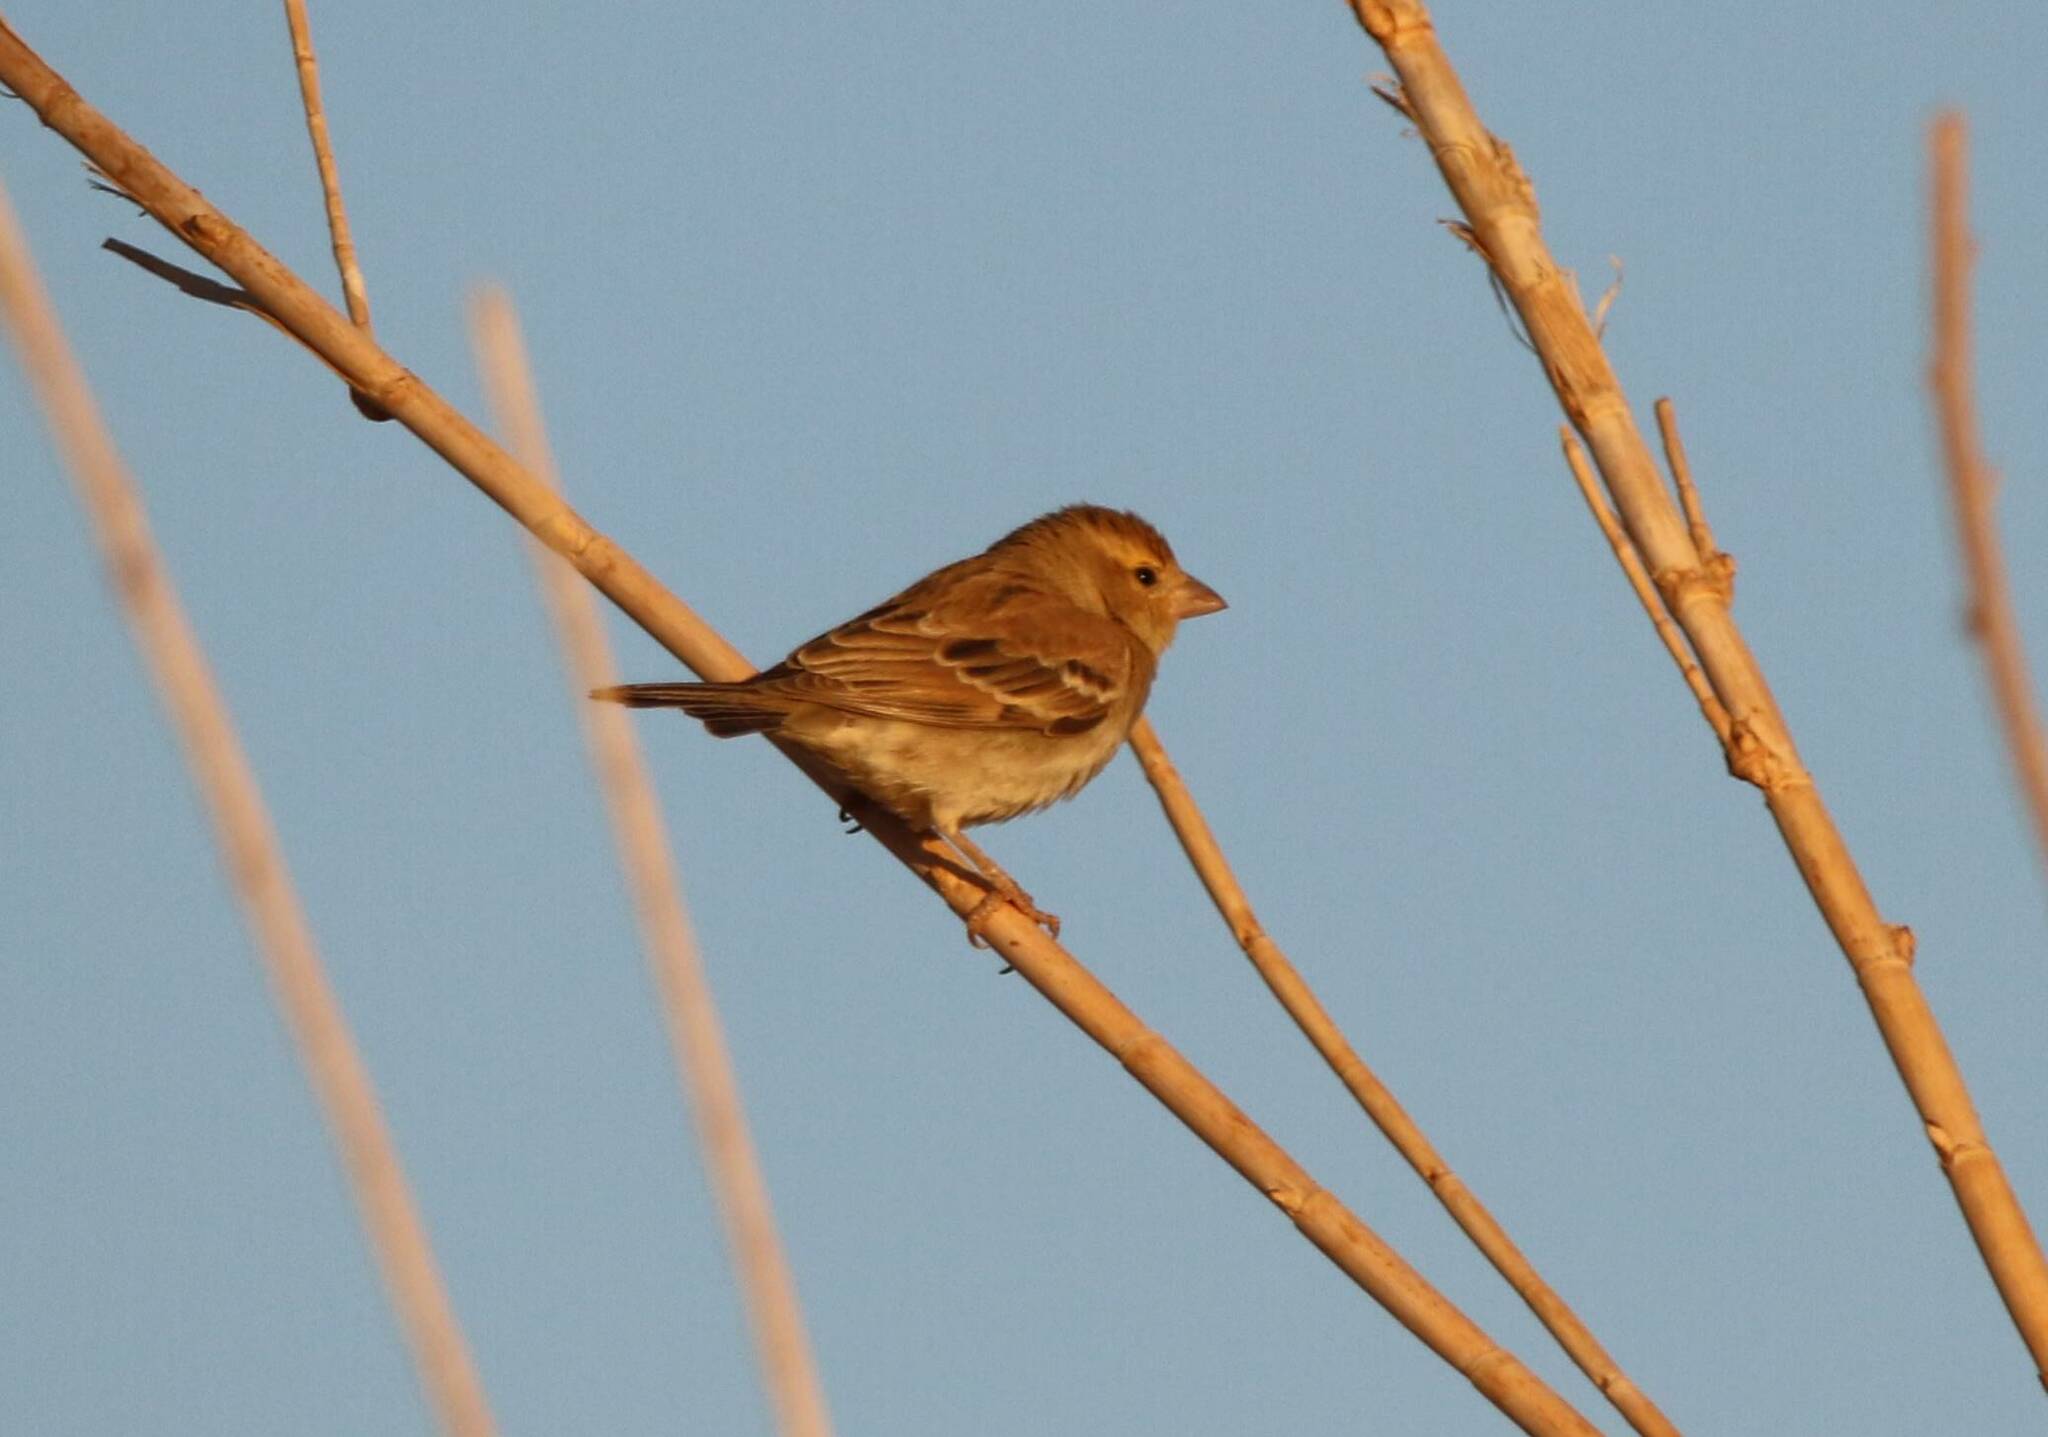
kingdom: Animalia
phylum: Chordata
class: Aves
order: Passeriformes
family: Passeridae
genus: Passer
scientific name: Passer luteus
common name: Sudan golden sparrow
